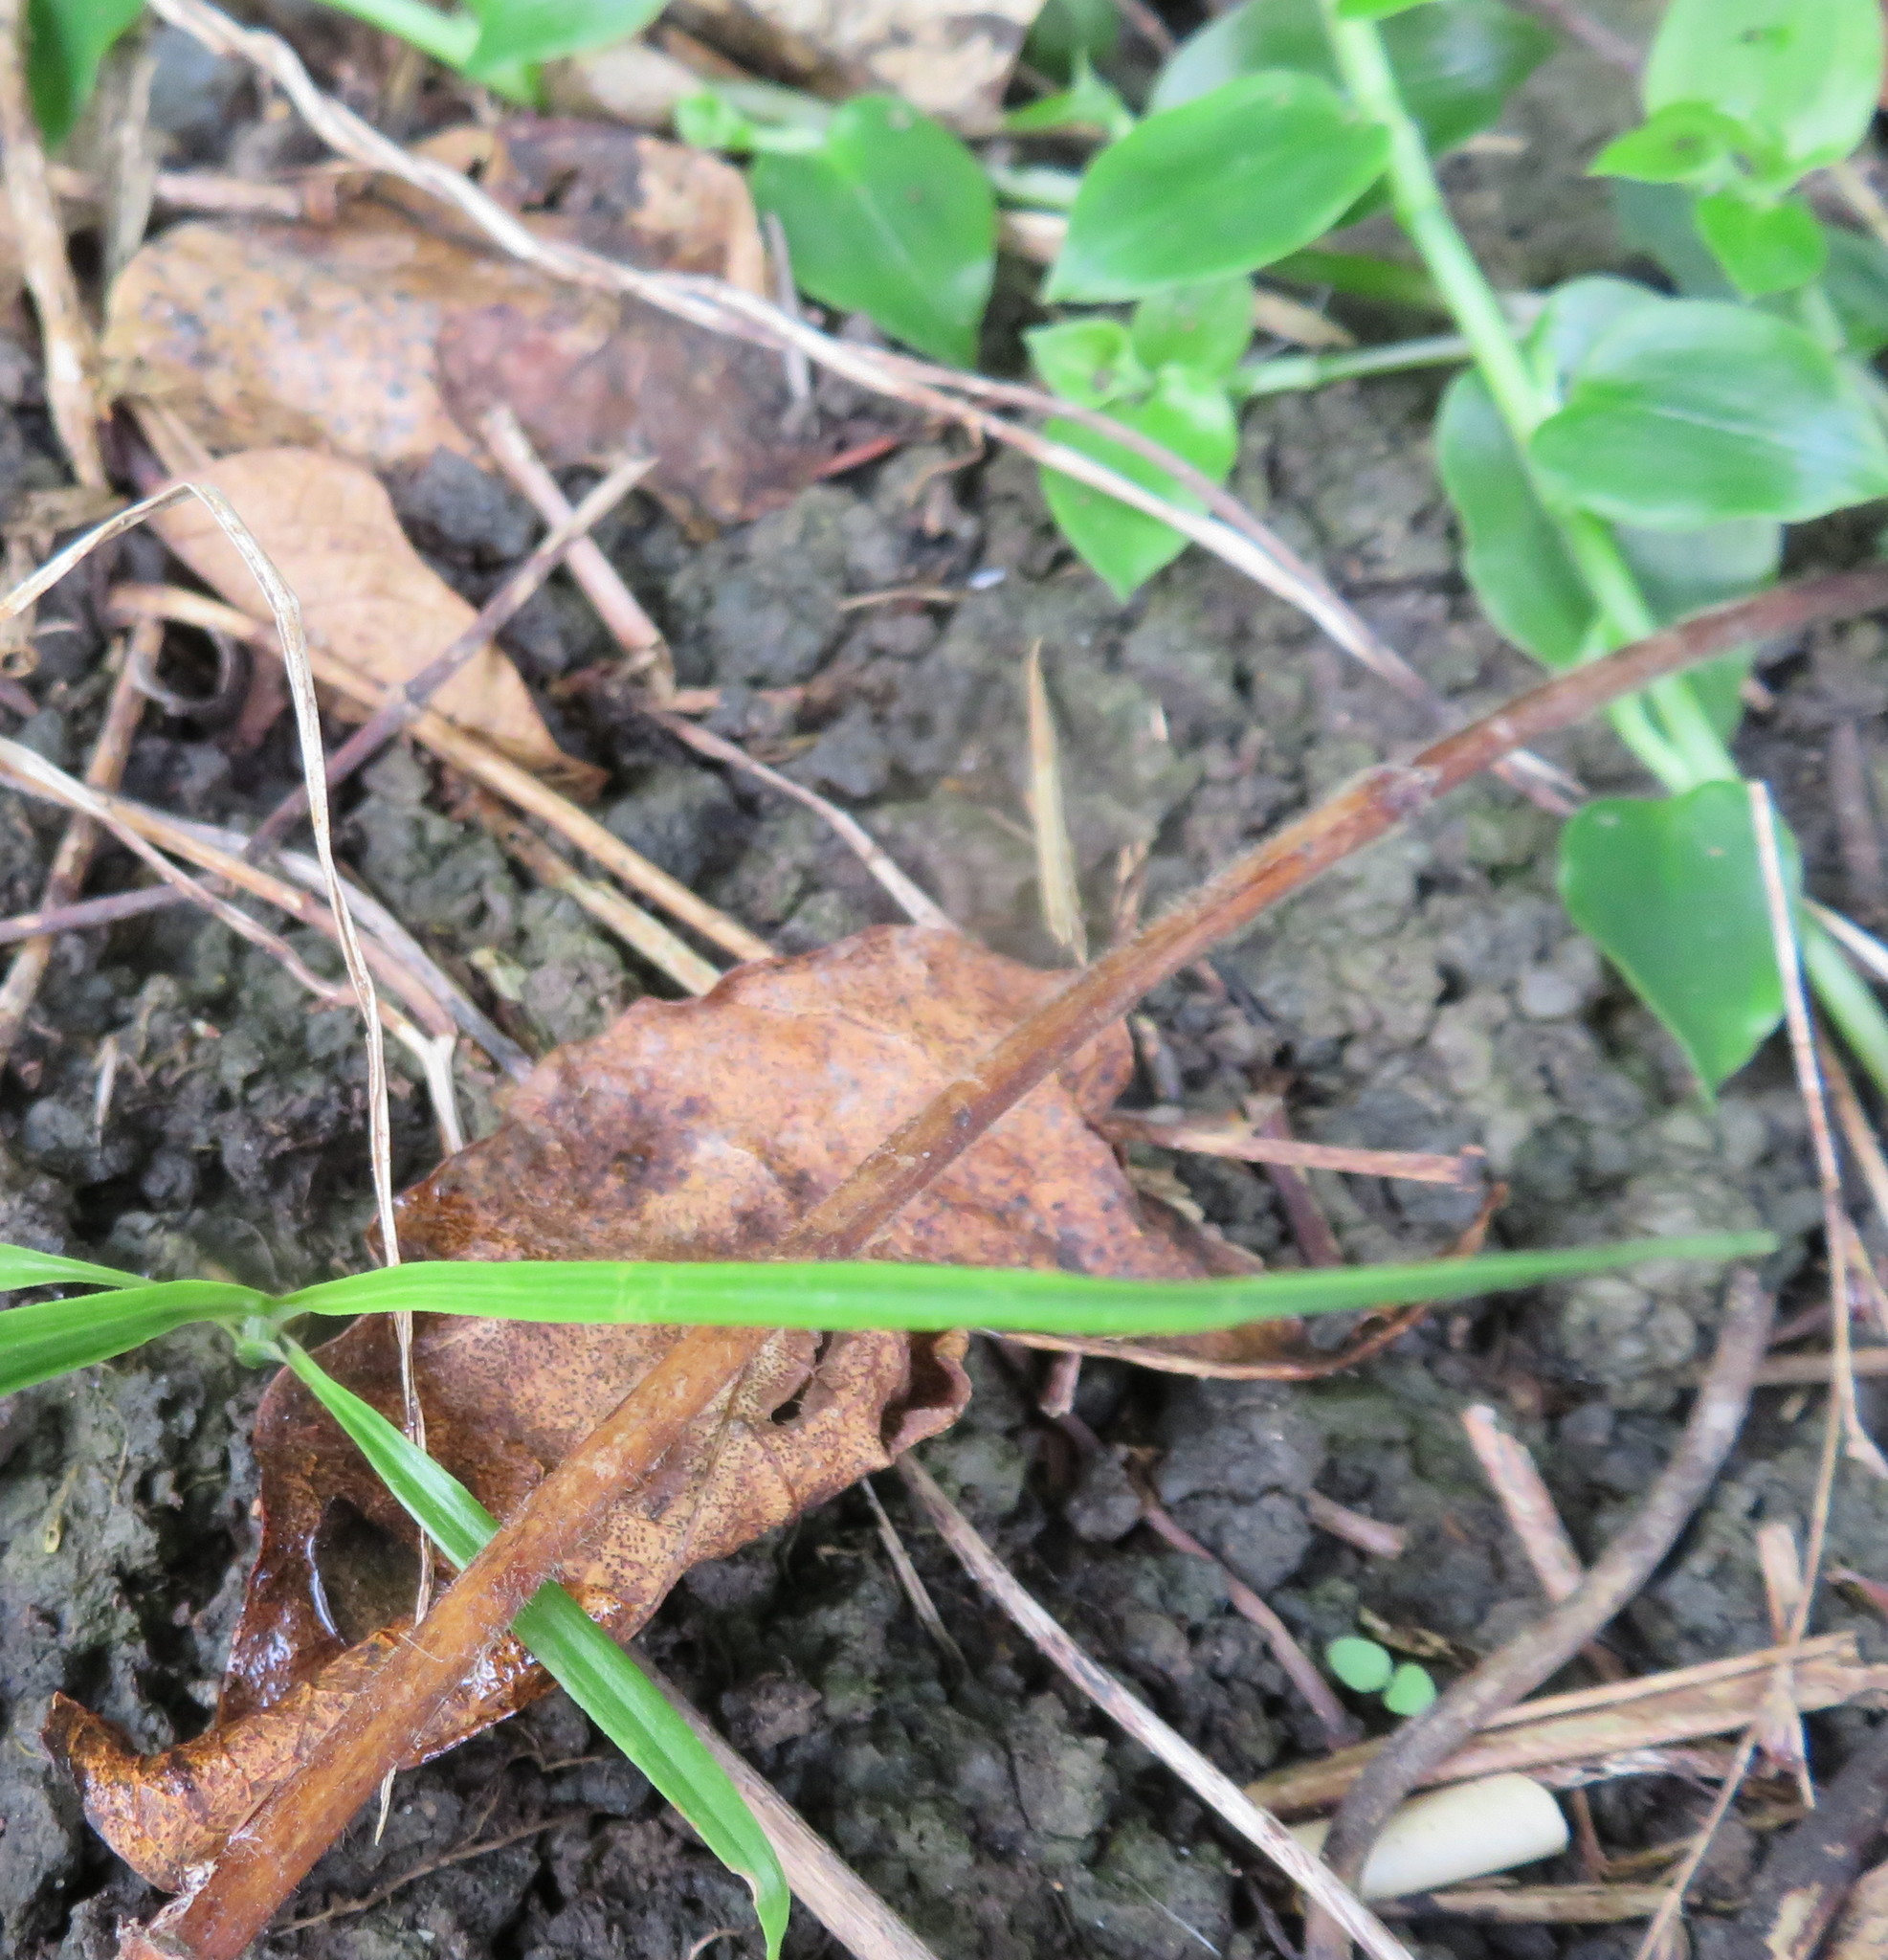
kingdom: Plantae
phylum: Tracheophyta
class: Liliopsida
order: Commelinales
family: Commelinaceae
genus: Tradescantia
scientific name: Tradescantia fluminensis
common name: Wandering-jew
